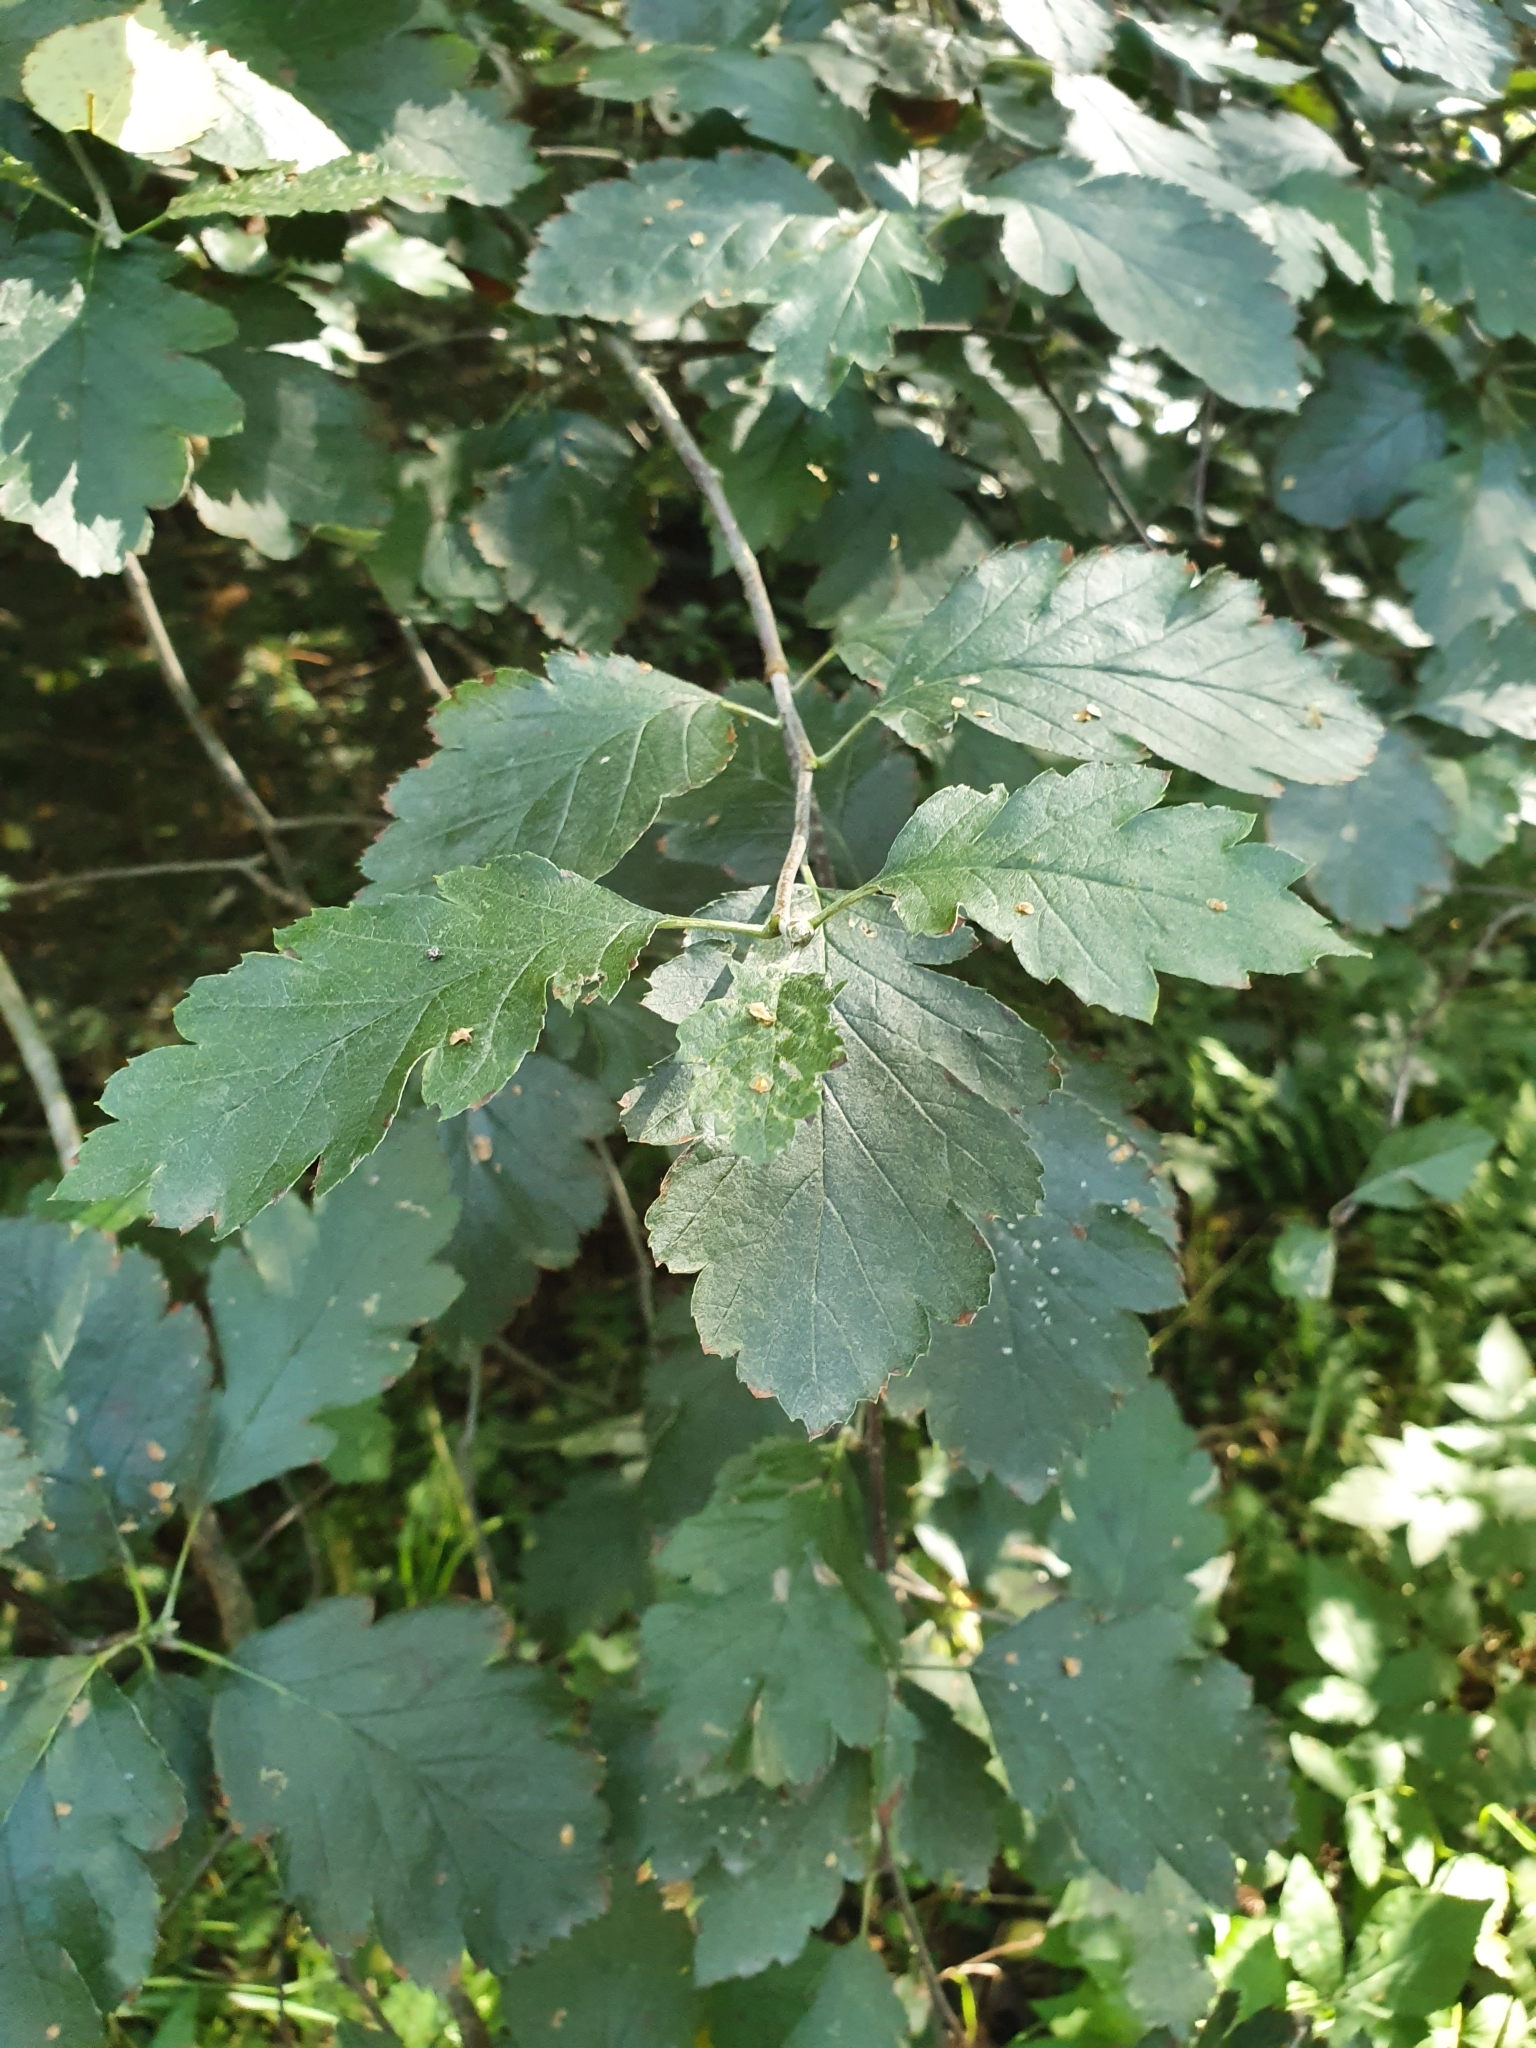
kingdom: Plantae
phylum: Tracheophyta
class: Magnoliopsida
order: Rosales
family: Rosaceae
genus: Scandosorbus
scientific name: Scandosorbus intermedia
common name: Swedish whitebeam
